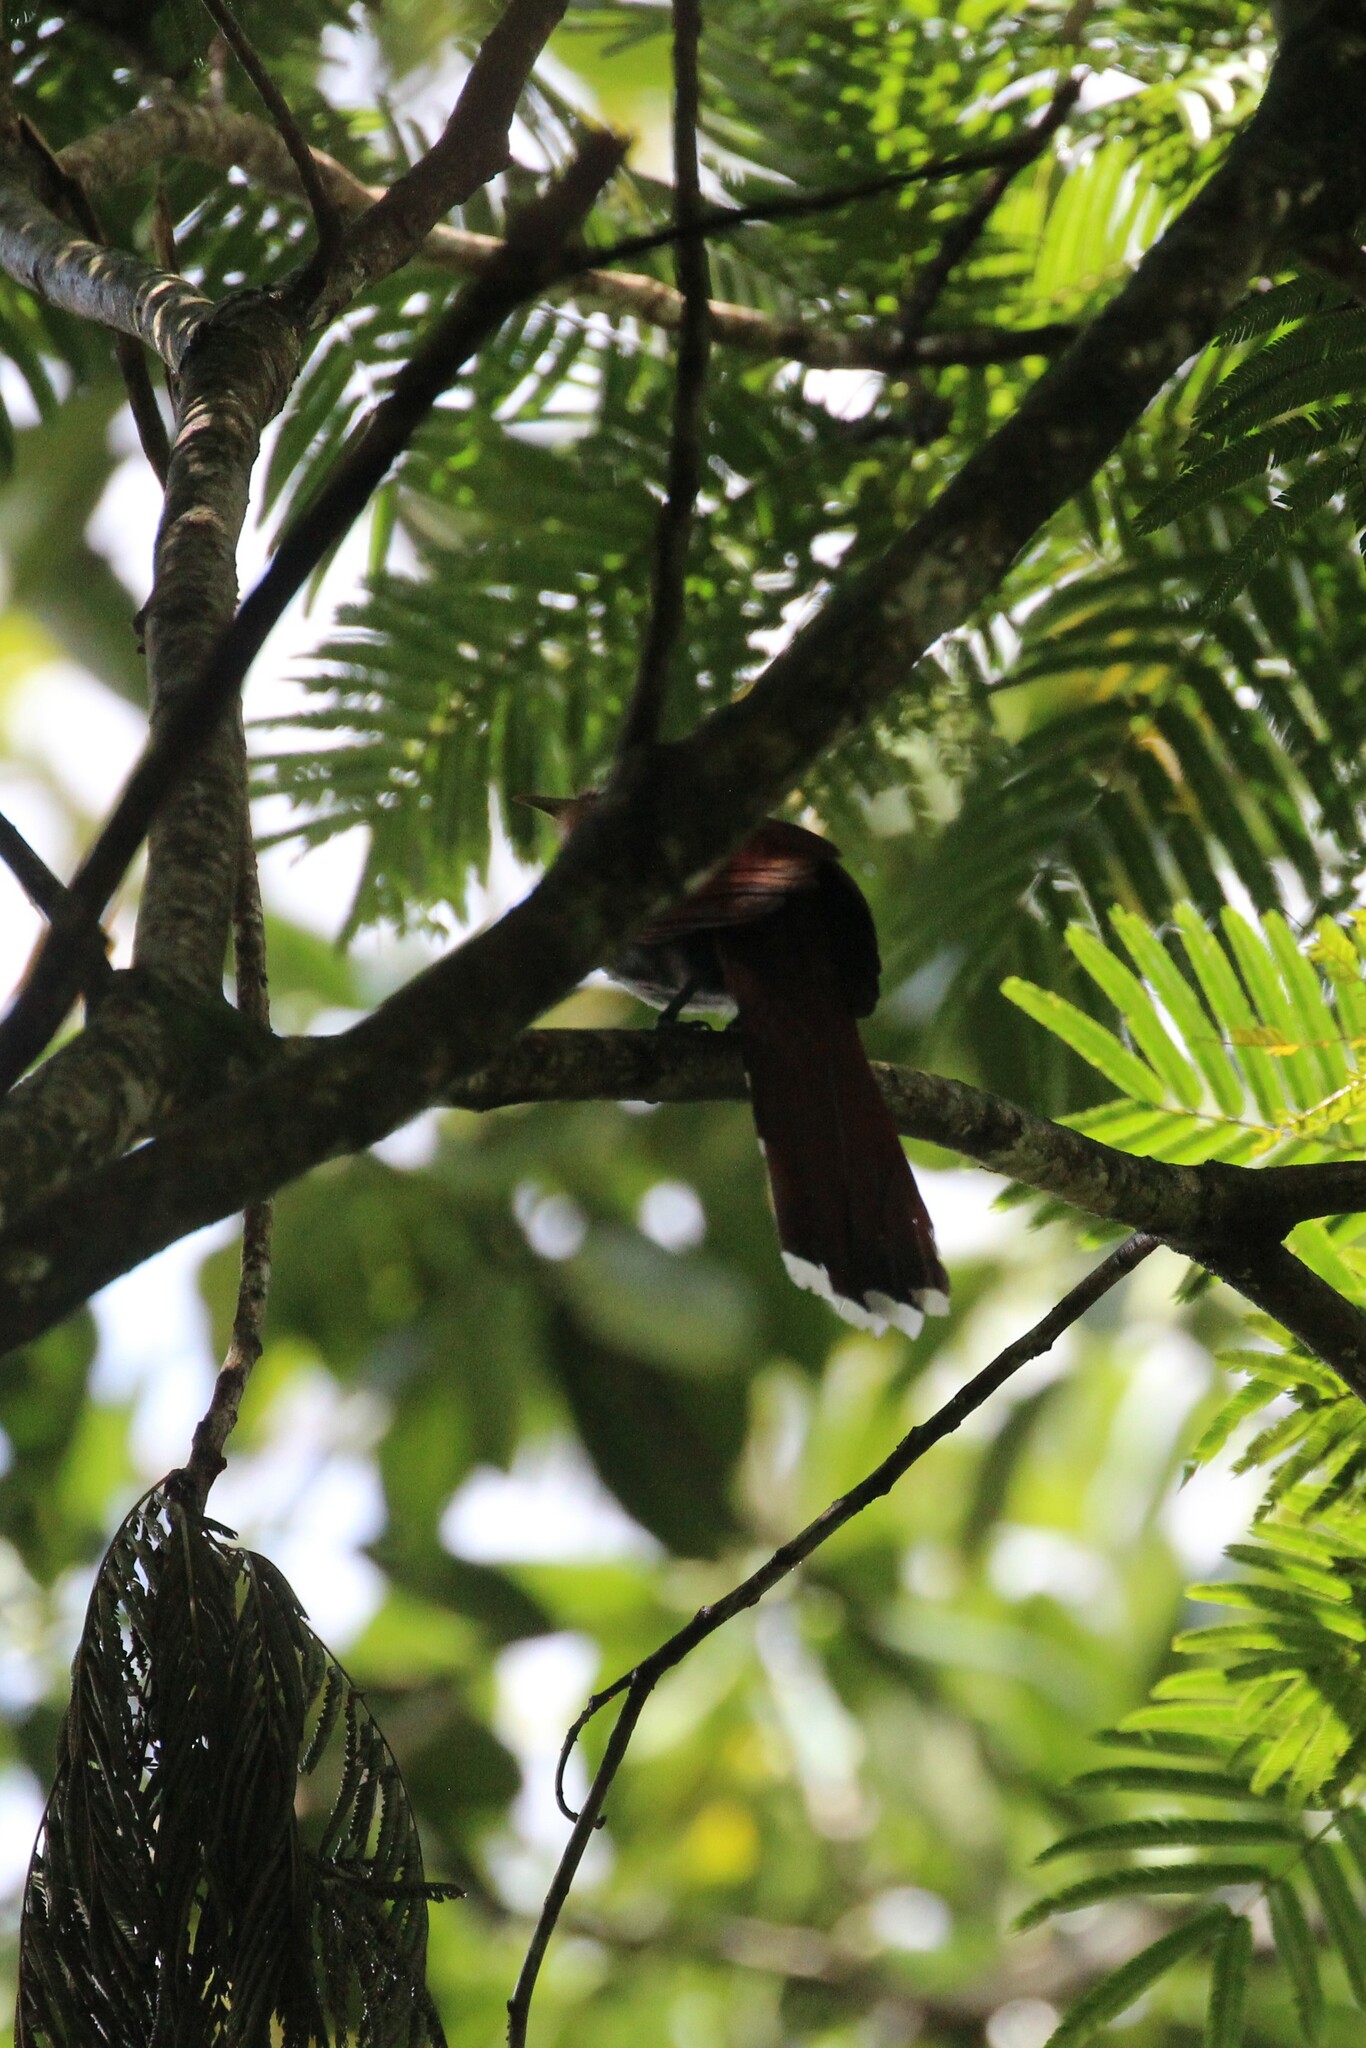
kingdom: Animalia
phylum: Chordata
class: Aves
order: Cuculiformes
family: Cuculidae
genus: Piaya
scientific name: Piaya cayana
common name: Squirrel cuckoo
